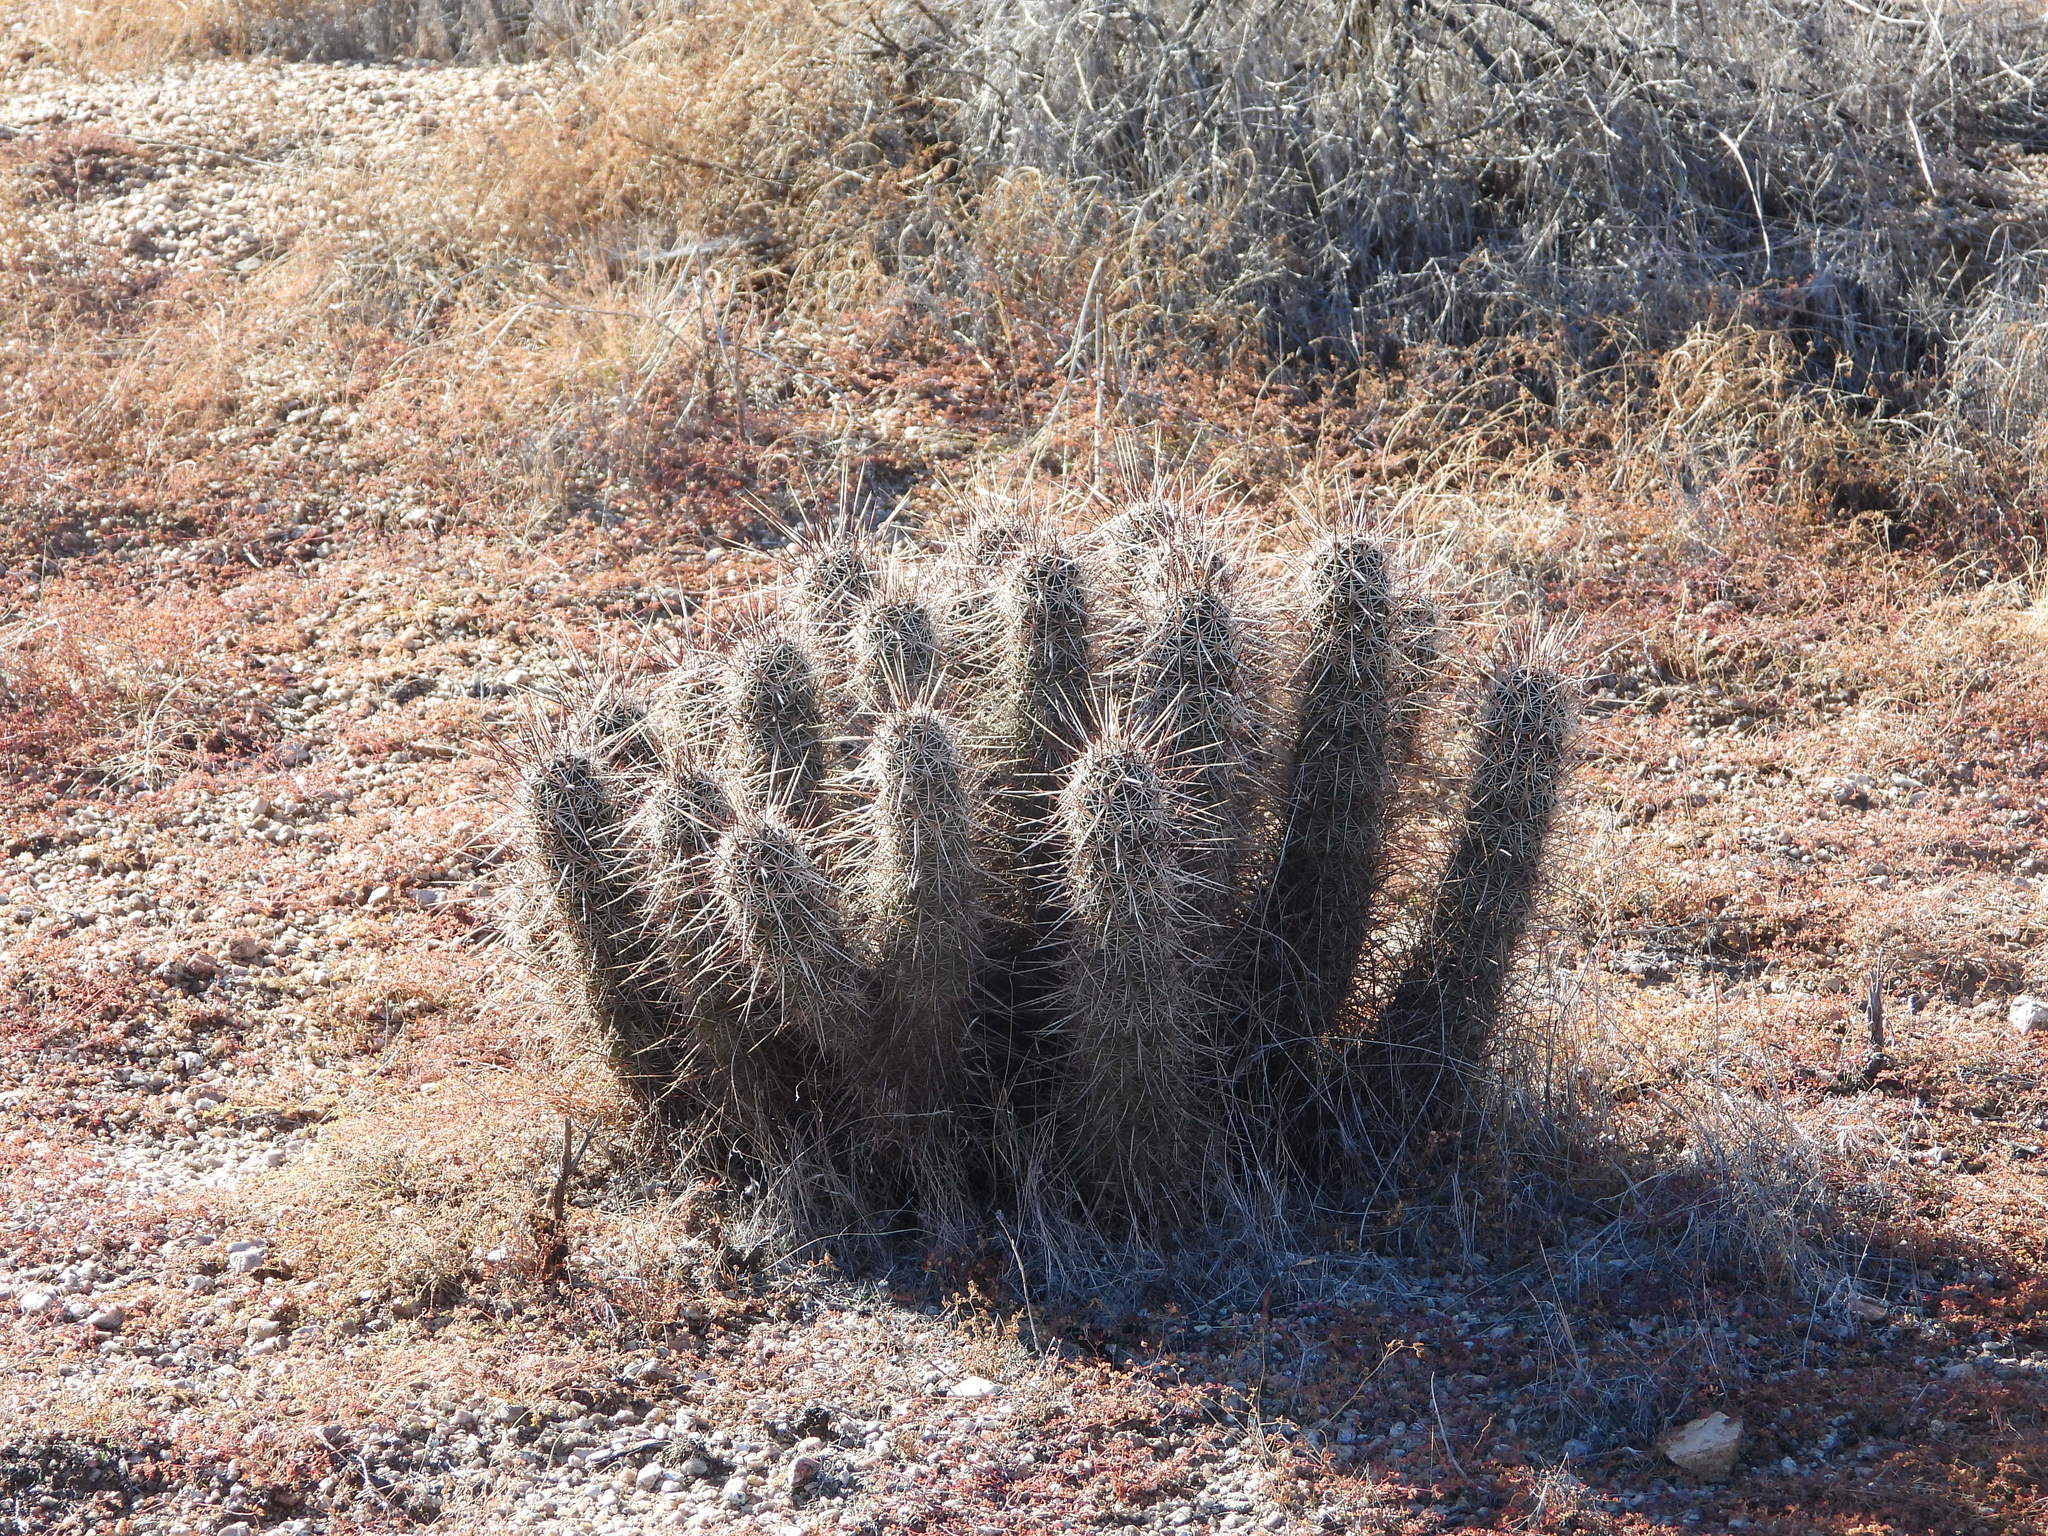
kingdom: Plantae
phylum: Tracheophyta
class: Magnoliopsida
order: Caryophyllales
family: Cactaceae
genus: Echinocereus
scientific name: Echinocereus engelmannii
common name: Engelmann's hedgehog cactus
